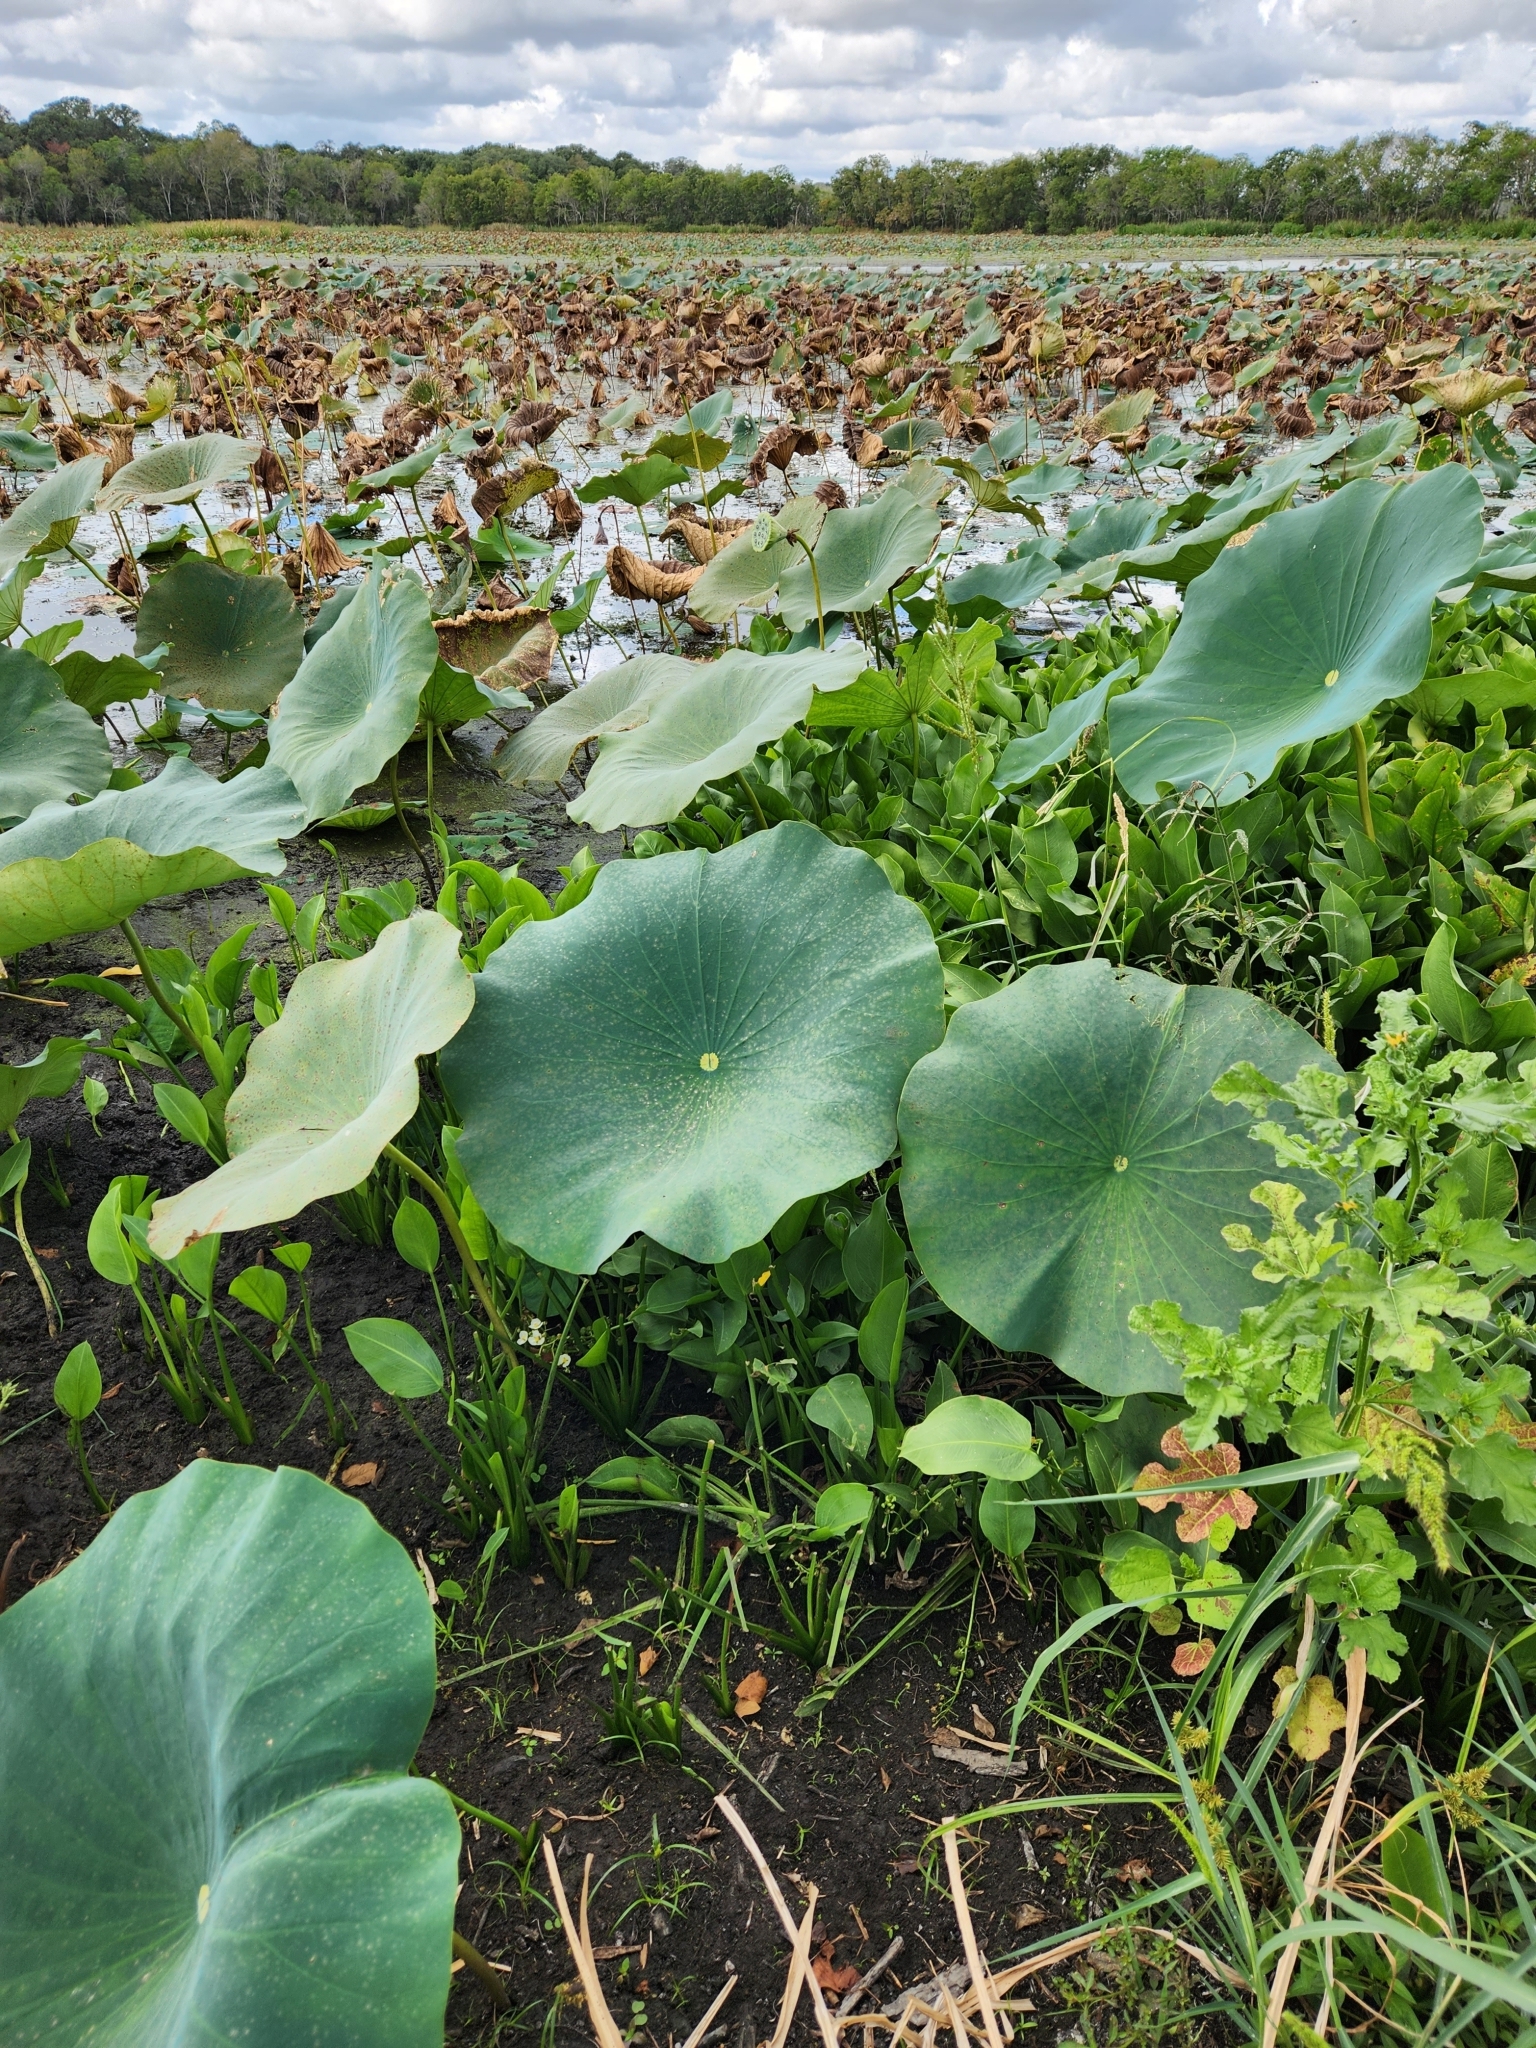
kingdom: Plantae
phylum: Tracheophyta
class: Magnoliopsida
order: Proteales
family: Nelumbonaceae
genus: Nelumbo
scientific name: Nelumbo lutea
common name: American lotus
